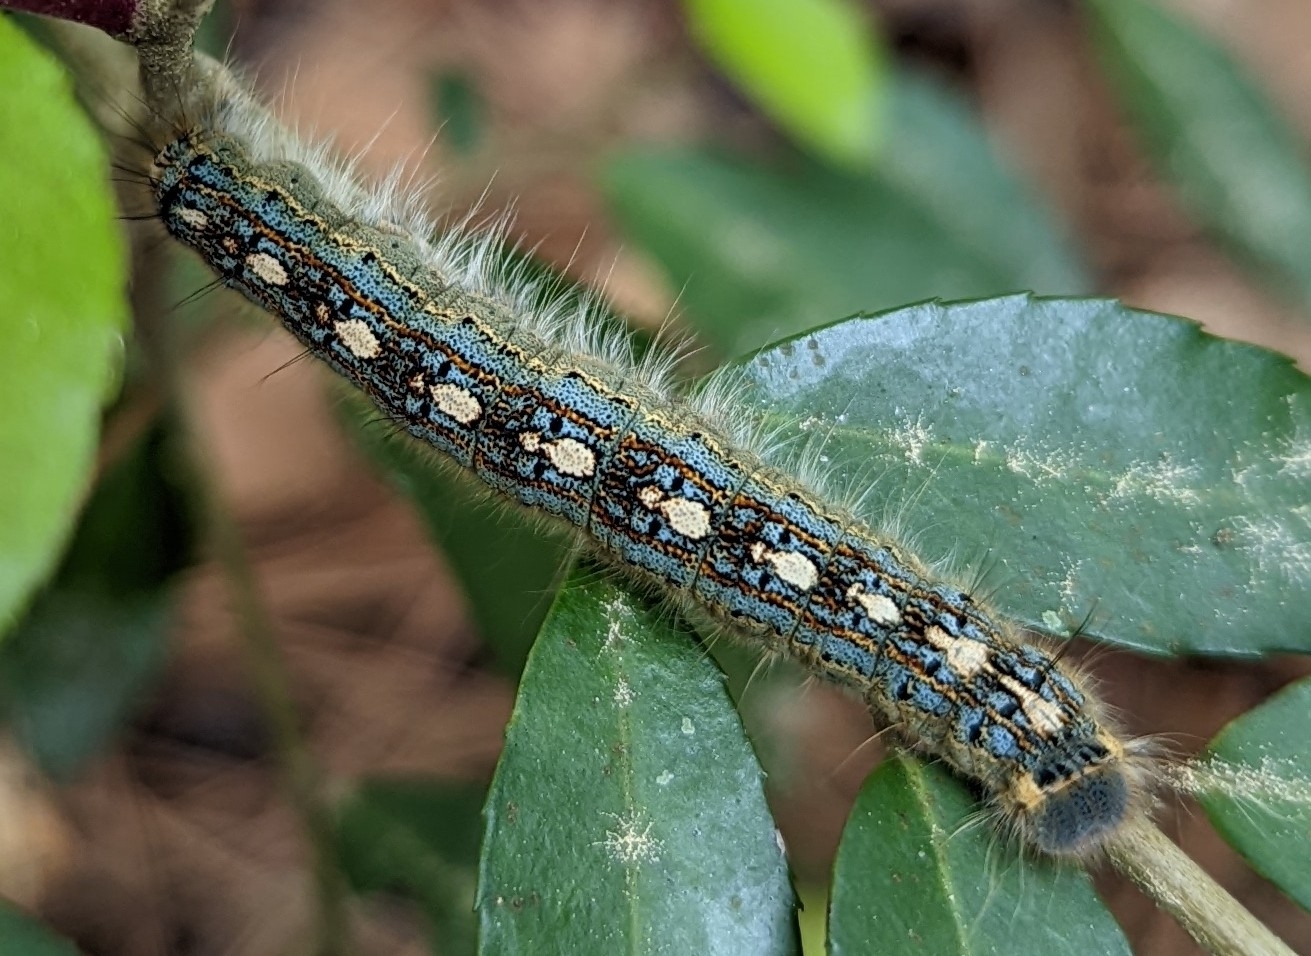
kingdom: Animalia
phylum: Arthropoda
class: Insecta
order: Lepidoptera
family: Lasiocampidae
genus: Malacosoma
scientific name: Malacosoma disstria
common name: Forest tent caterpillar
